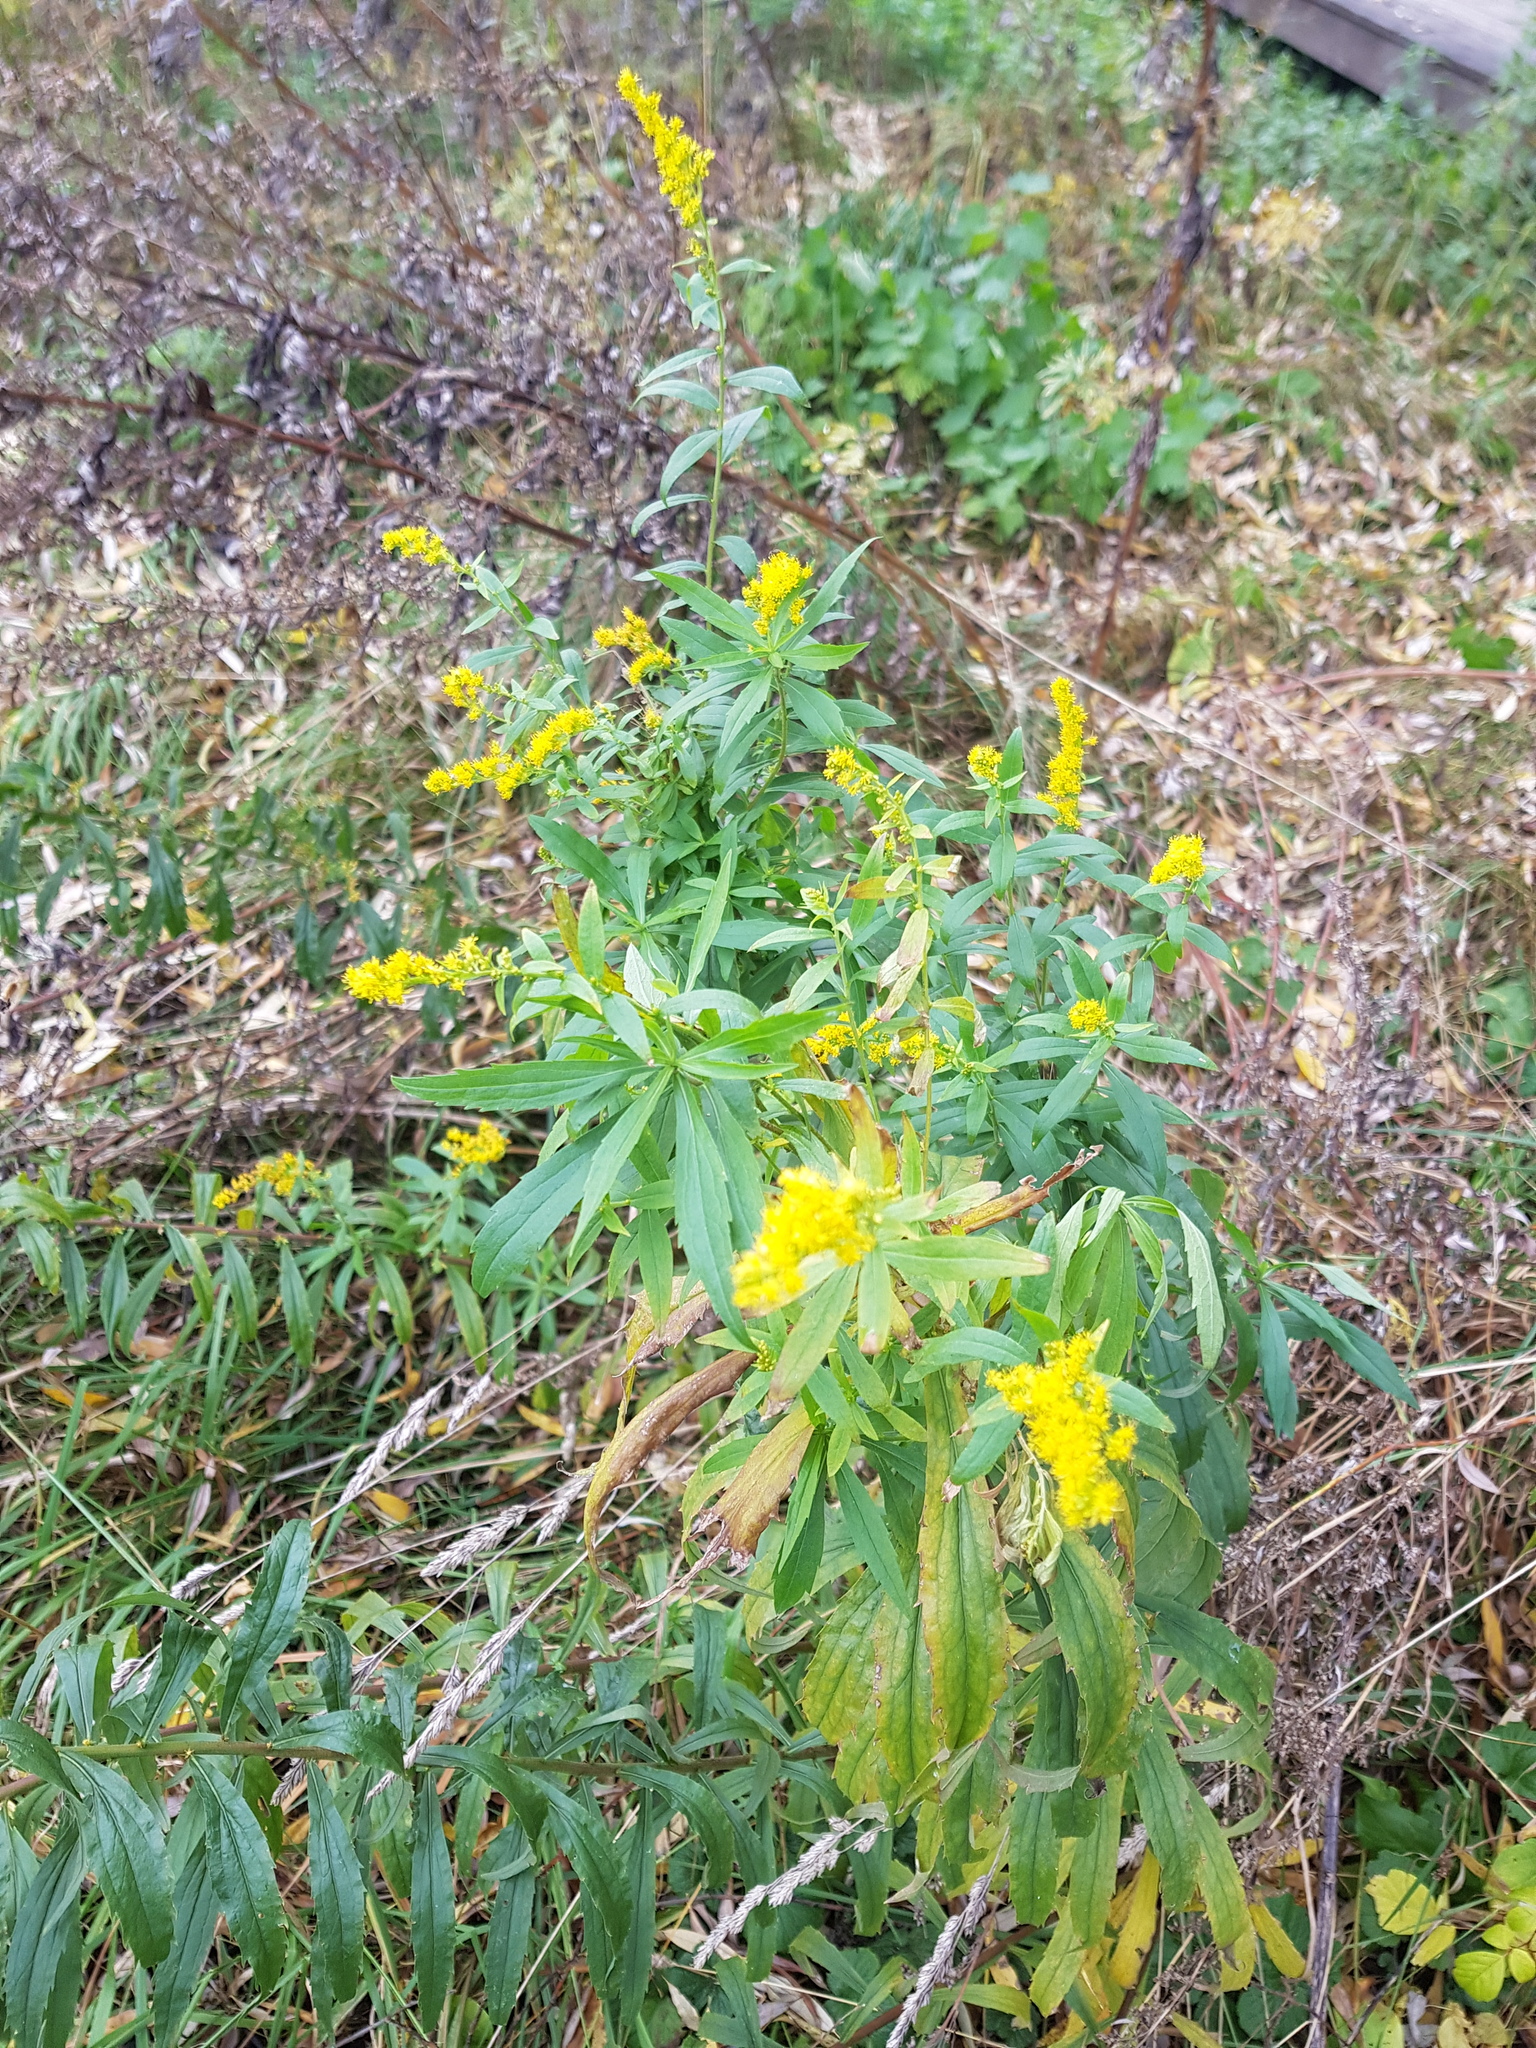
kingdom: Plantae
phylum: Tracheophyta
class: Magnoliopsida
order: Asterales
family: Asteraceae
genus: Solidago
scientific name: Solidago canadensis
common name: Canada goldenrod
